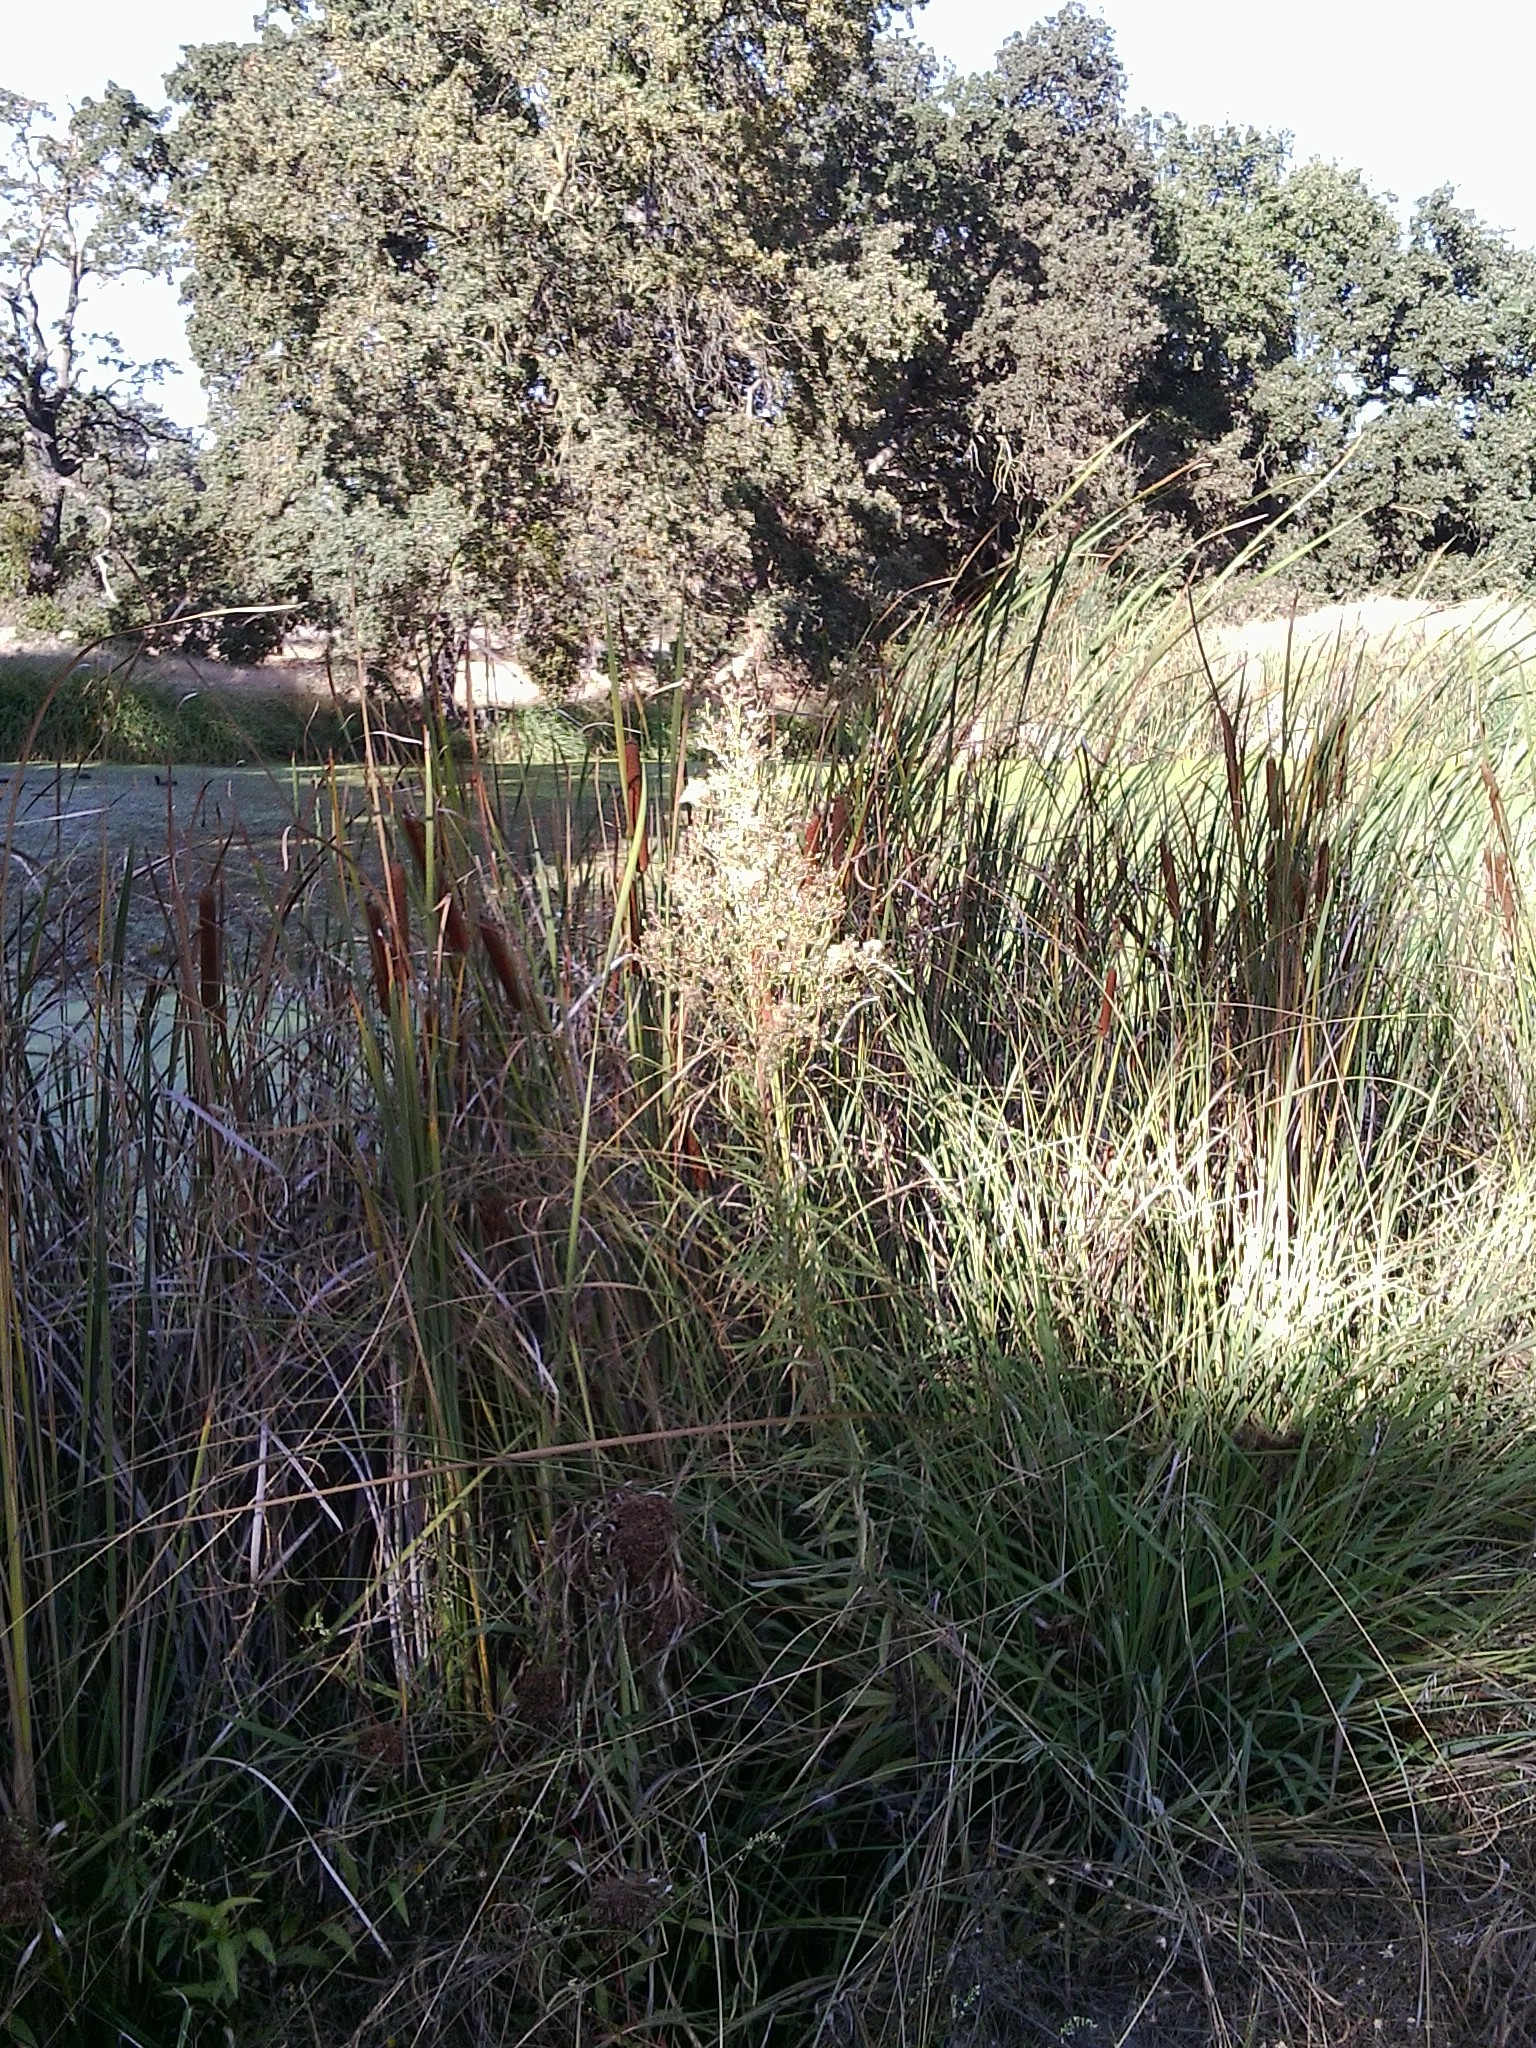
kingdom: Plantae
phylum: Tracheophyta
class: Magnoliopsida
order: Asterales
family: Asteraceae
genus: Erigeron
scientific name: Erigeron canadensis
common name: Canadian fleabane
